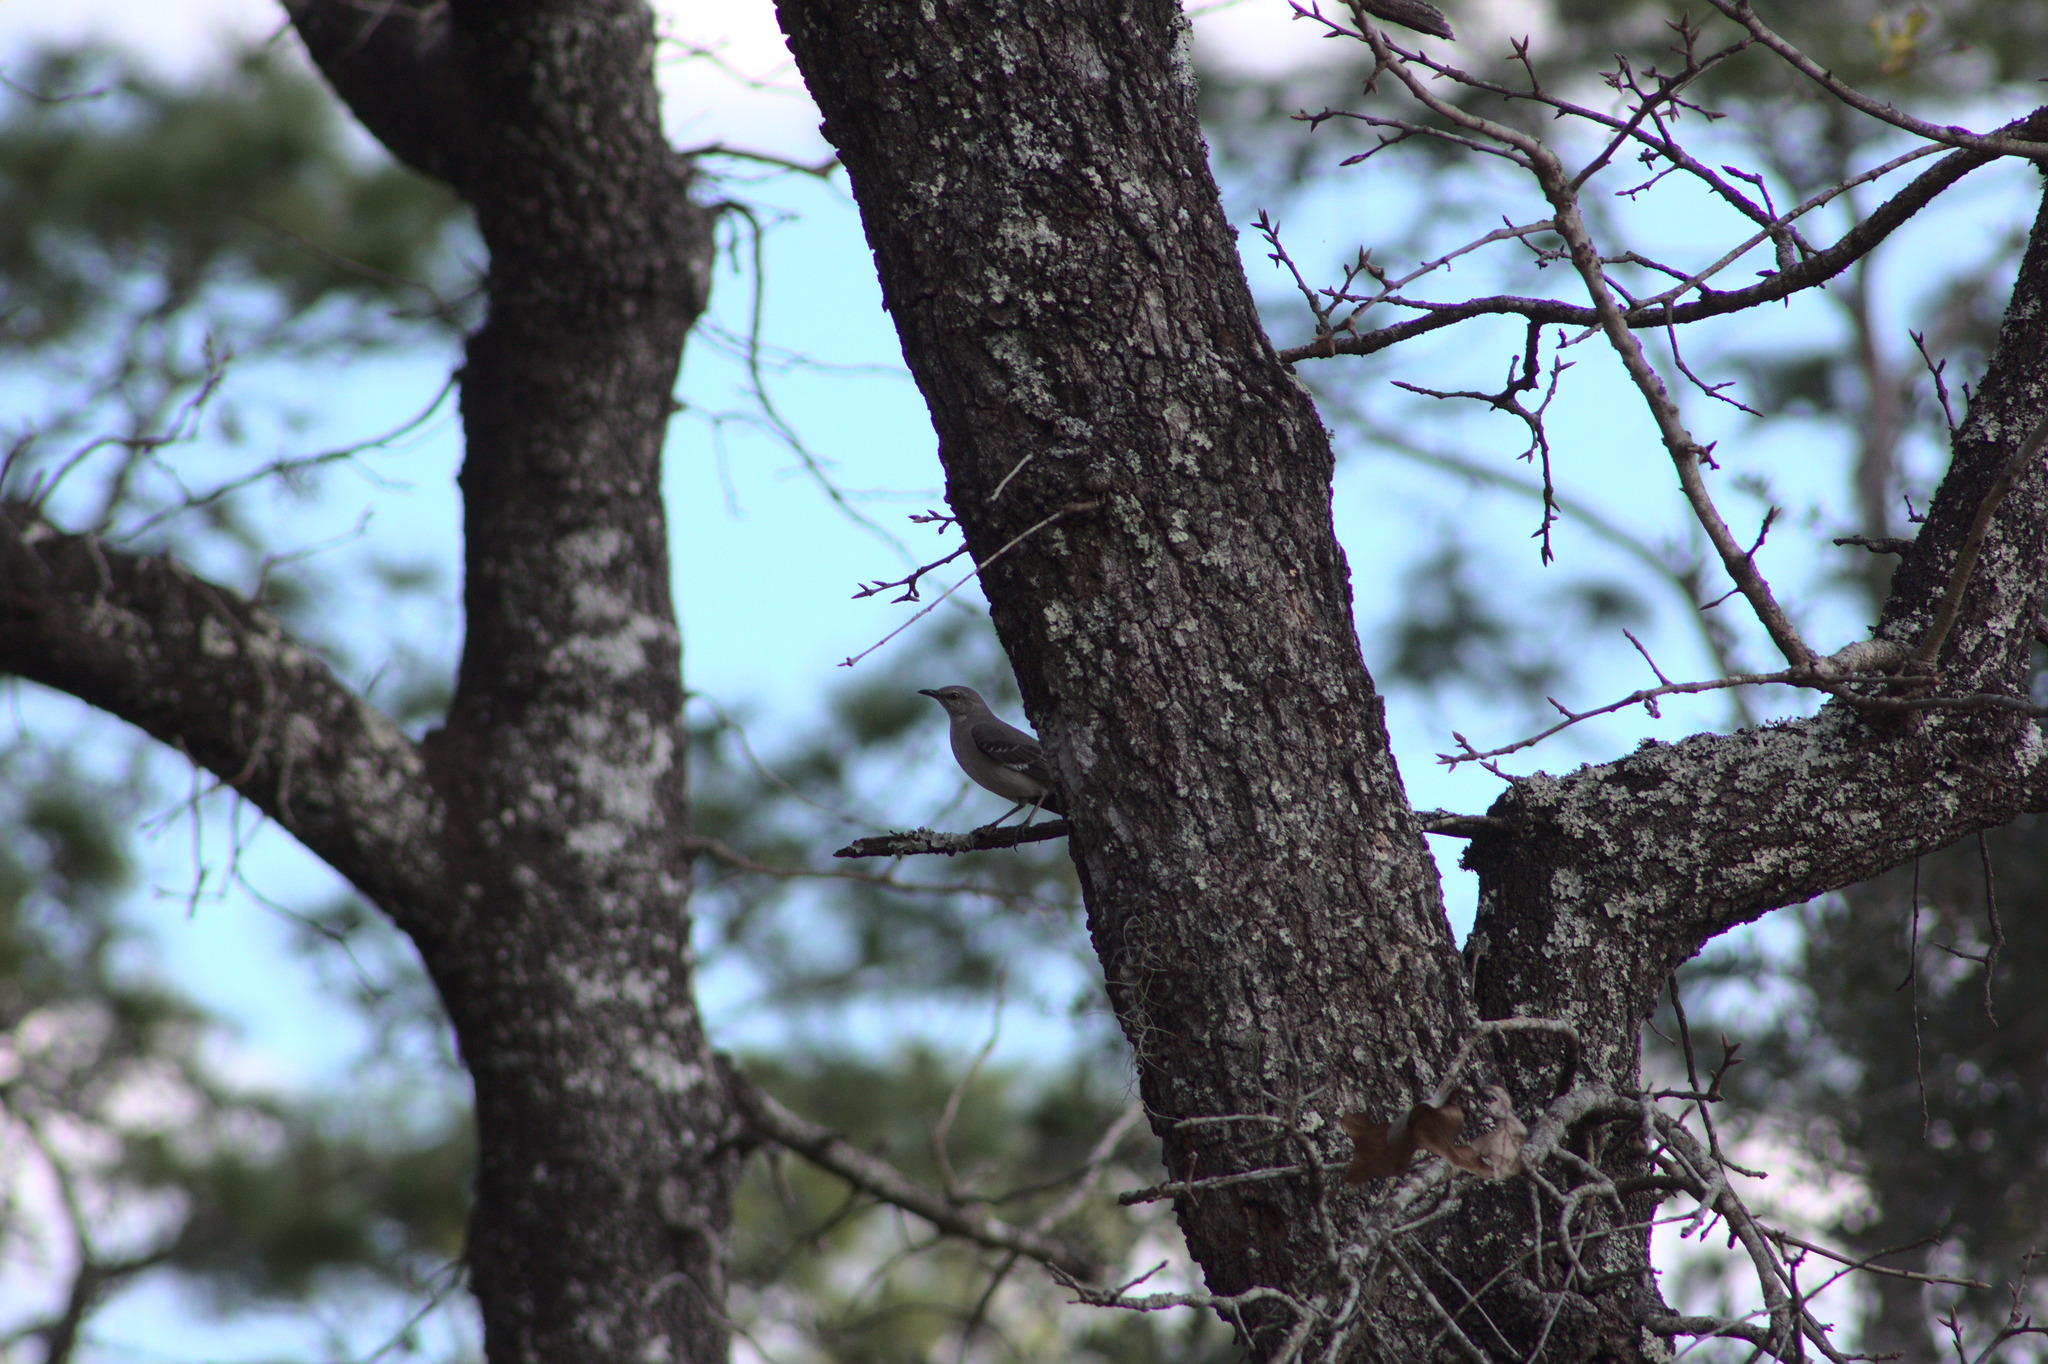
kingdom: Animalia
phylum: Chordata
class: Aves
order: Passeriformes
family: Mimidae
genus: Mimus
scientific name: Mimus polyglottos
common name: Northern mockingbird
